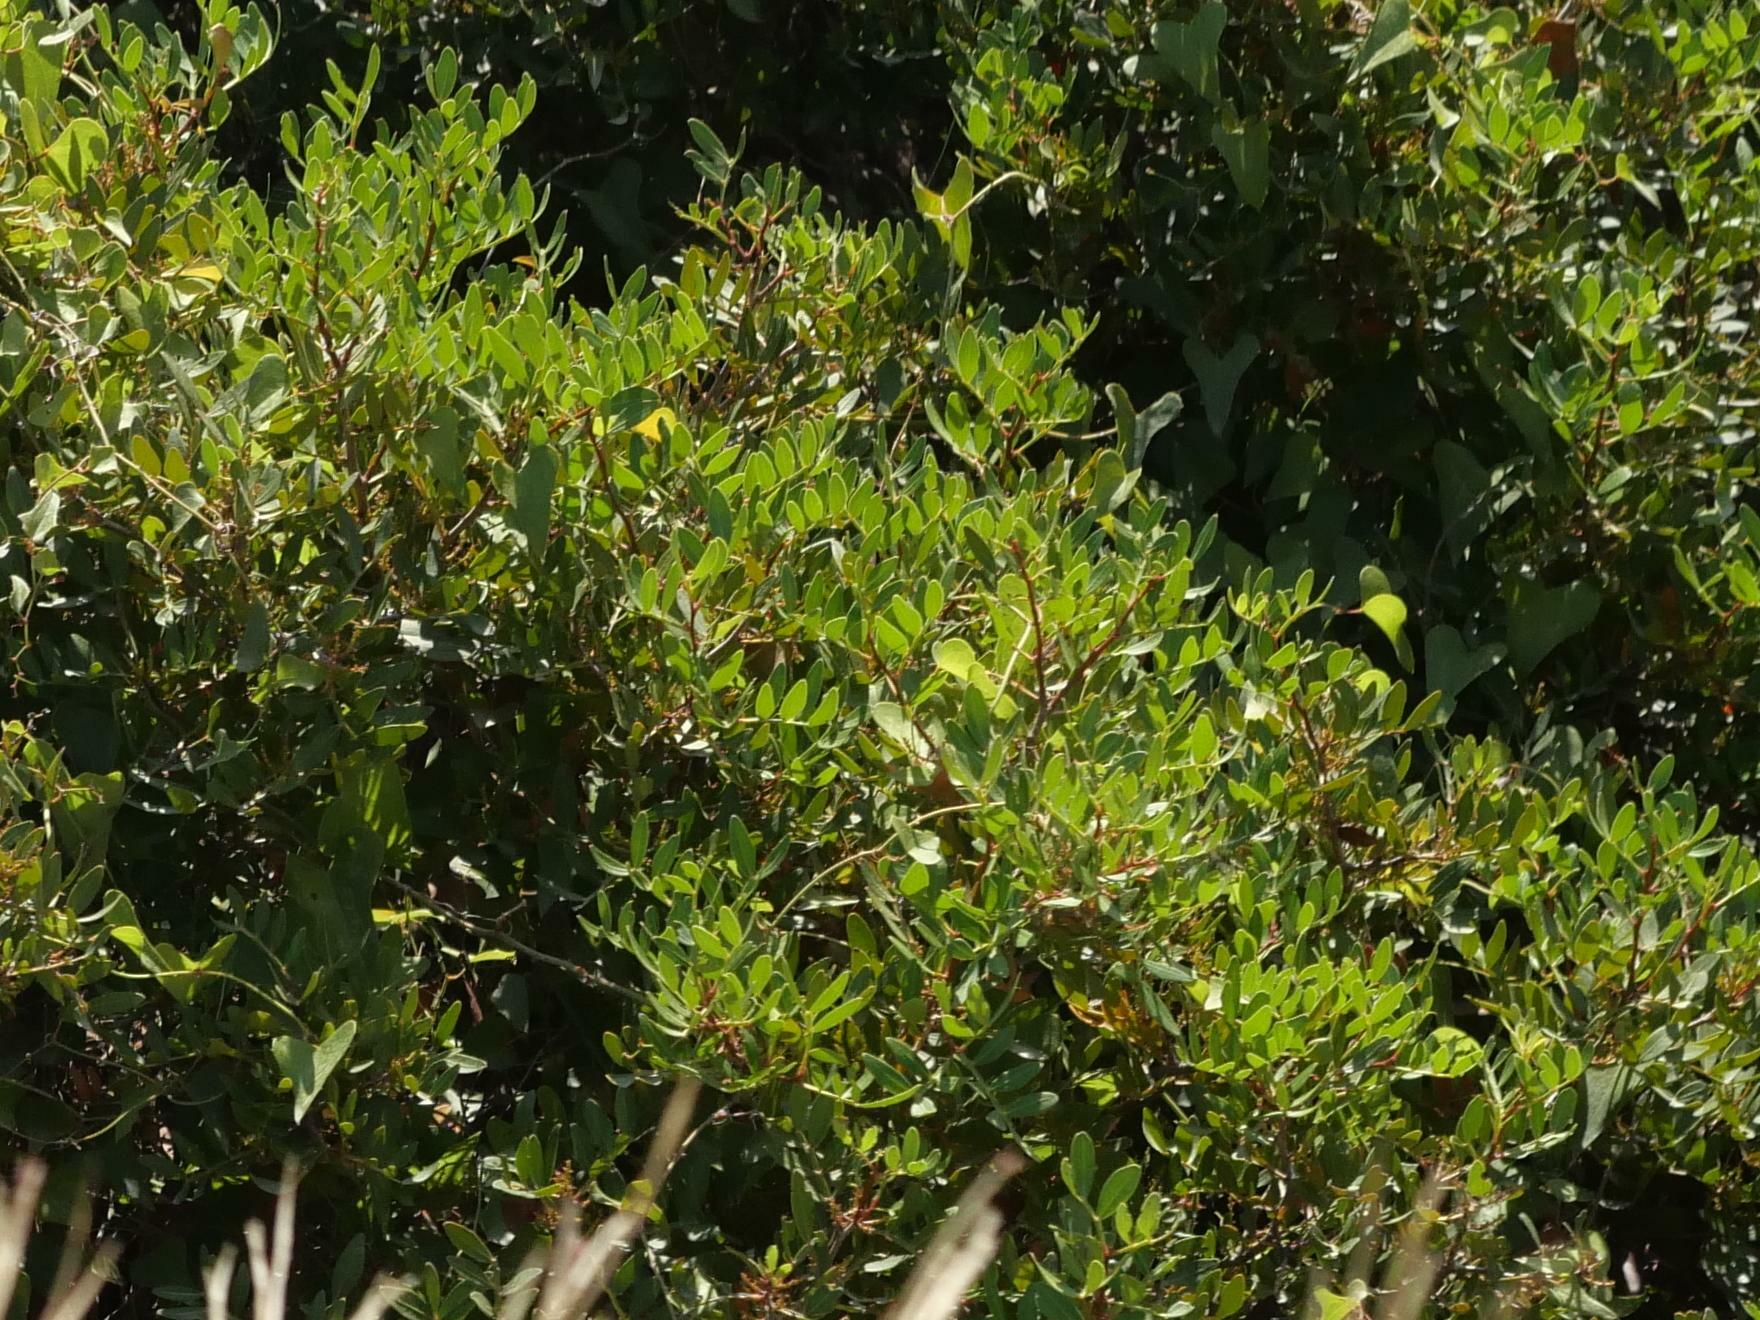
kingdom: Plantae
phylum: Tracheophyta
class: Magnoliopsida
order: Fabales
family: Fabaceae
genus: Ceratonia
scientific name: Ceratonia siliqua
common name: Carob
